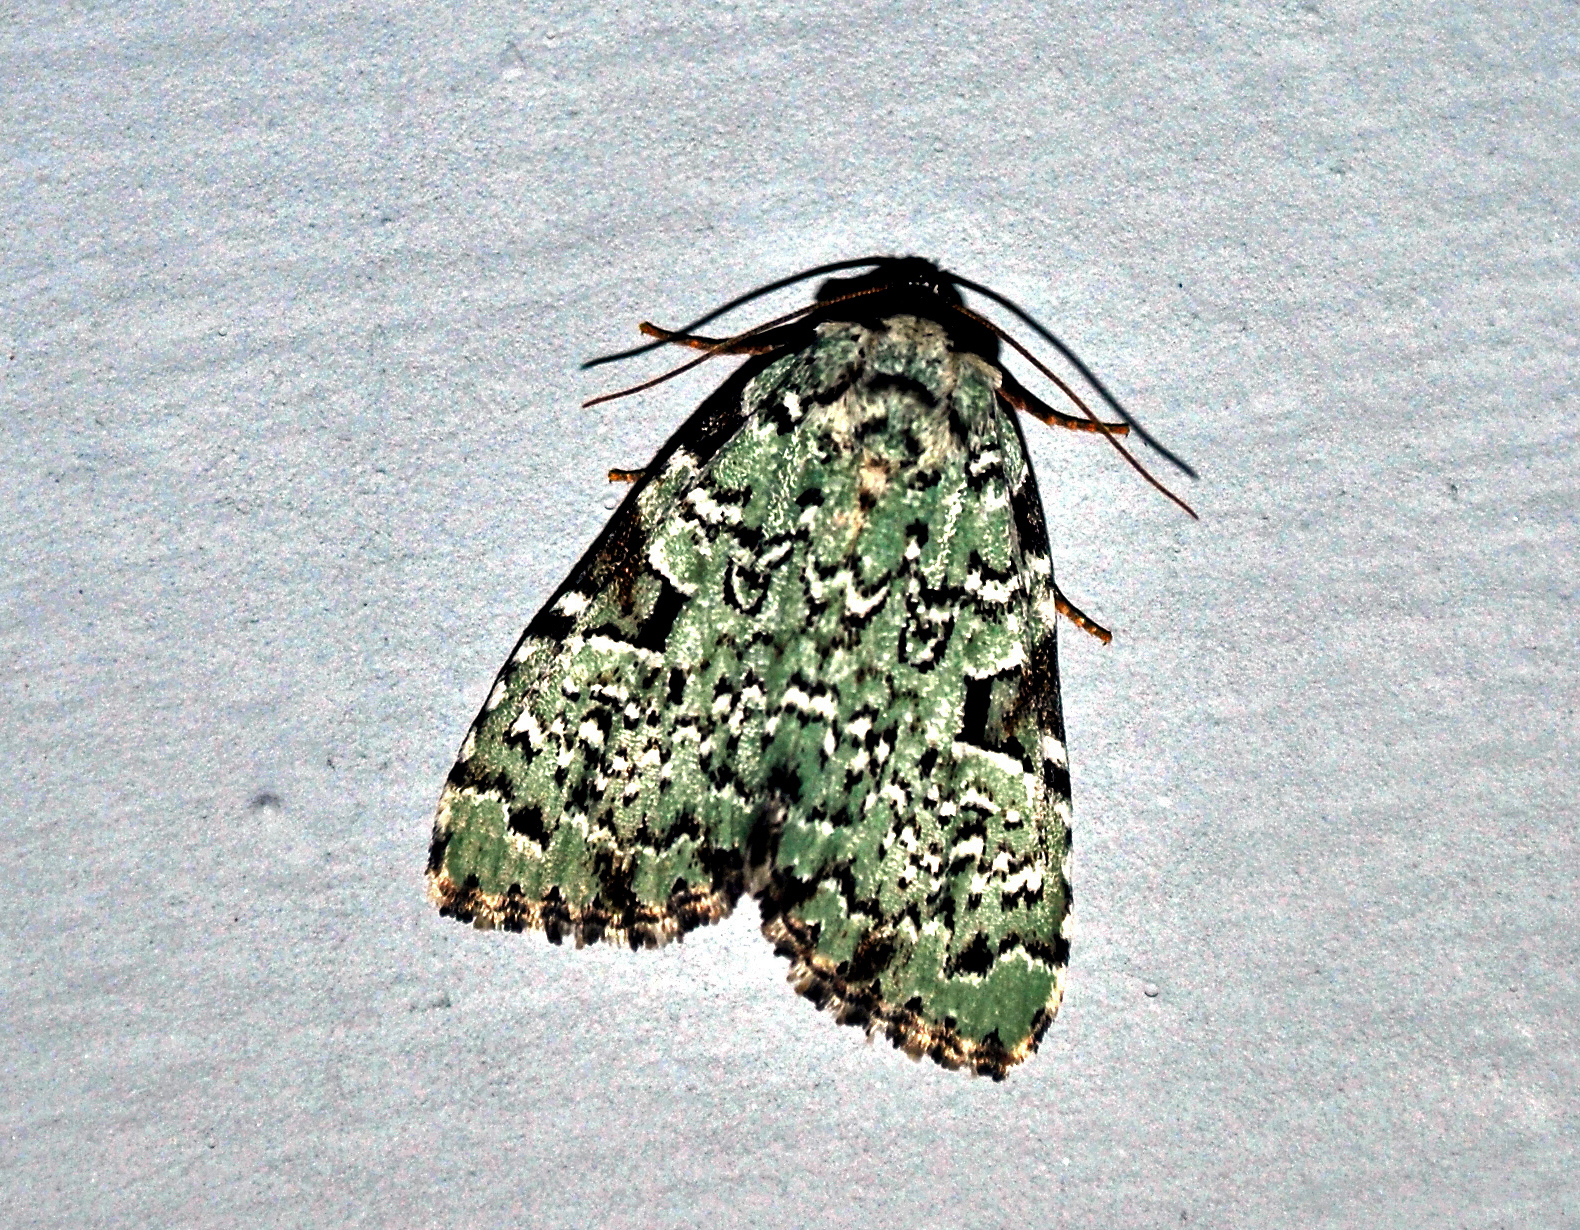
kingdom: Animalia
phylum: Arthropoda
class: Insecta
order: Lepidoptera
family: Noctuidae
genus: Leuconycta
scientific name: Leuconycta diphteroides
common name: Green leuconycta moth
